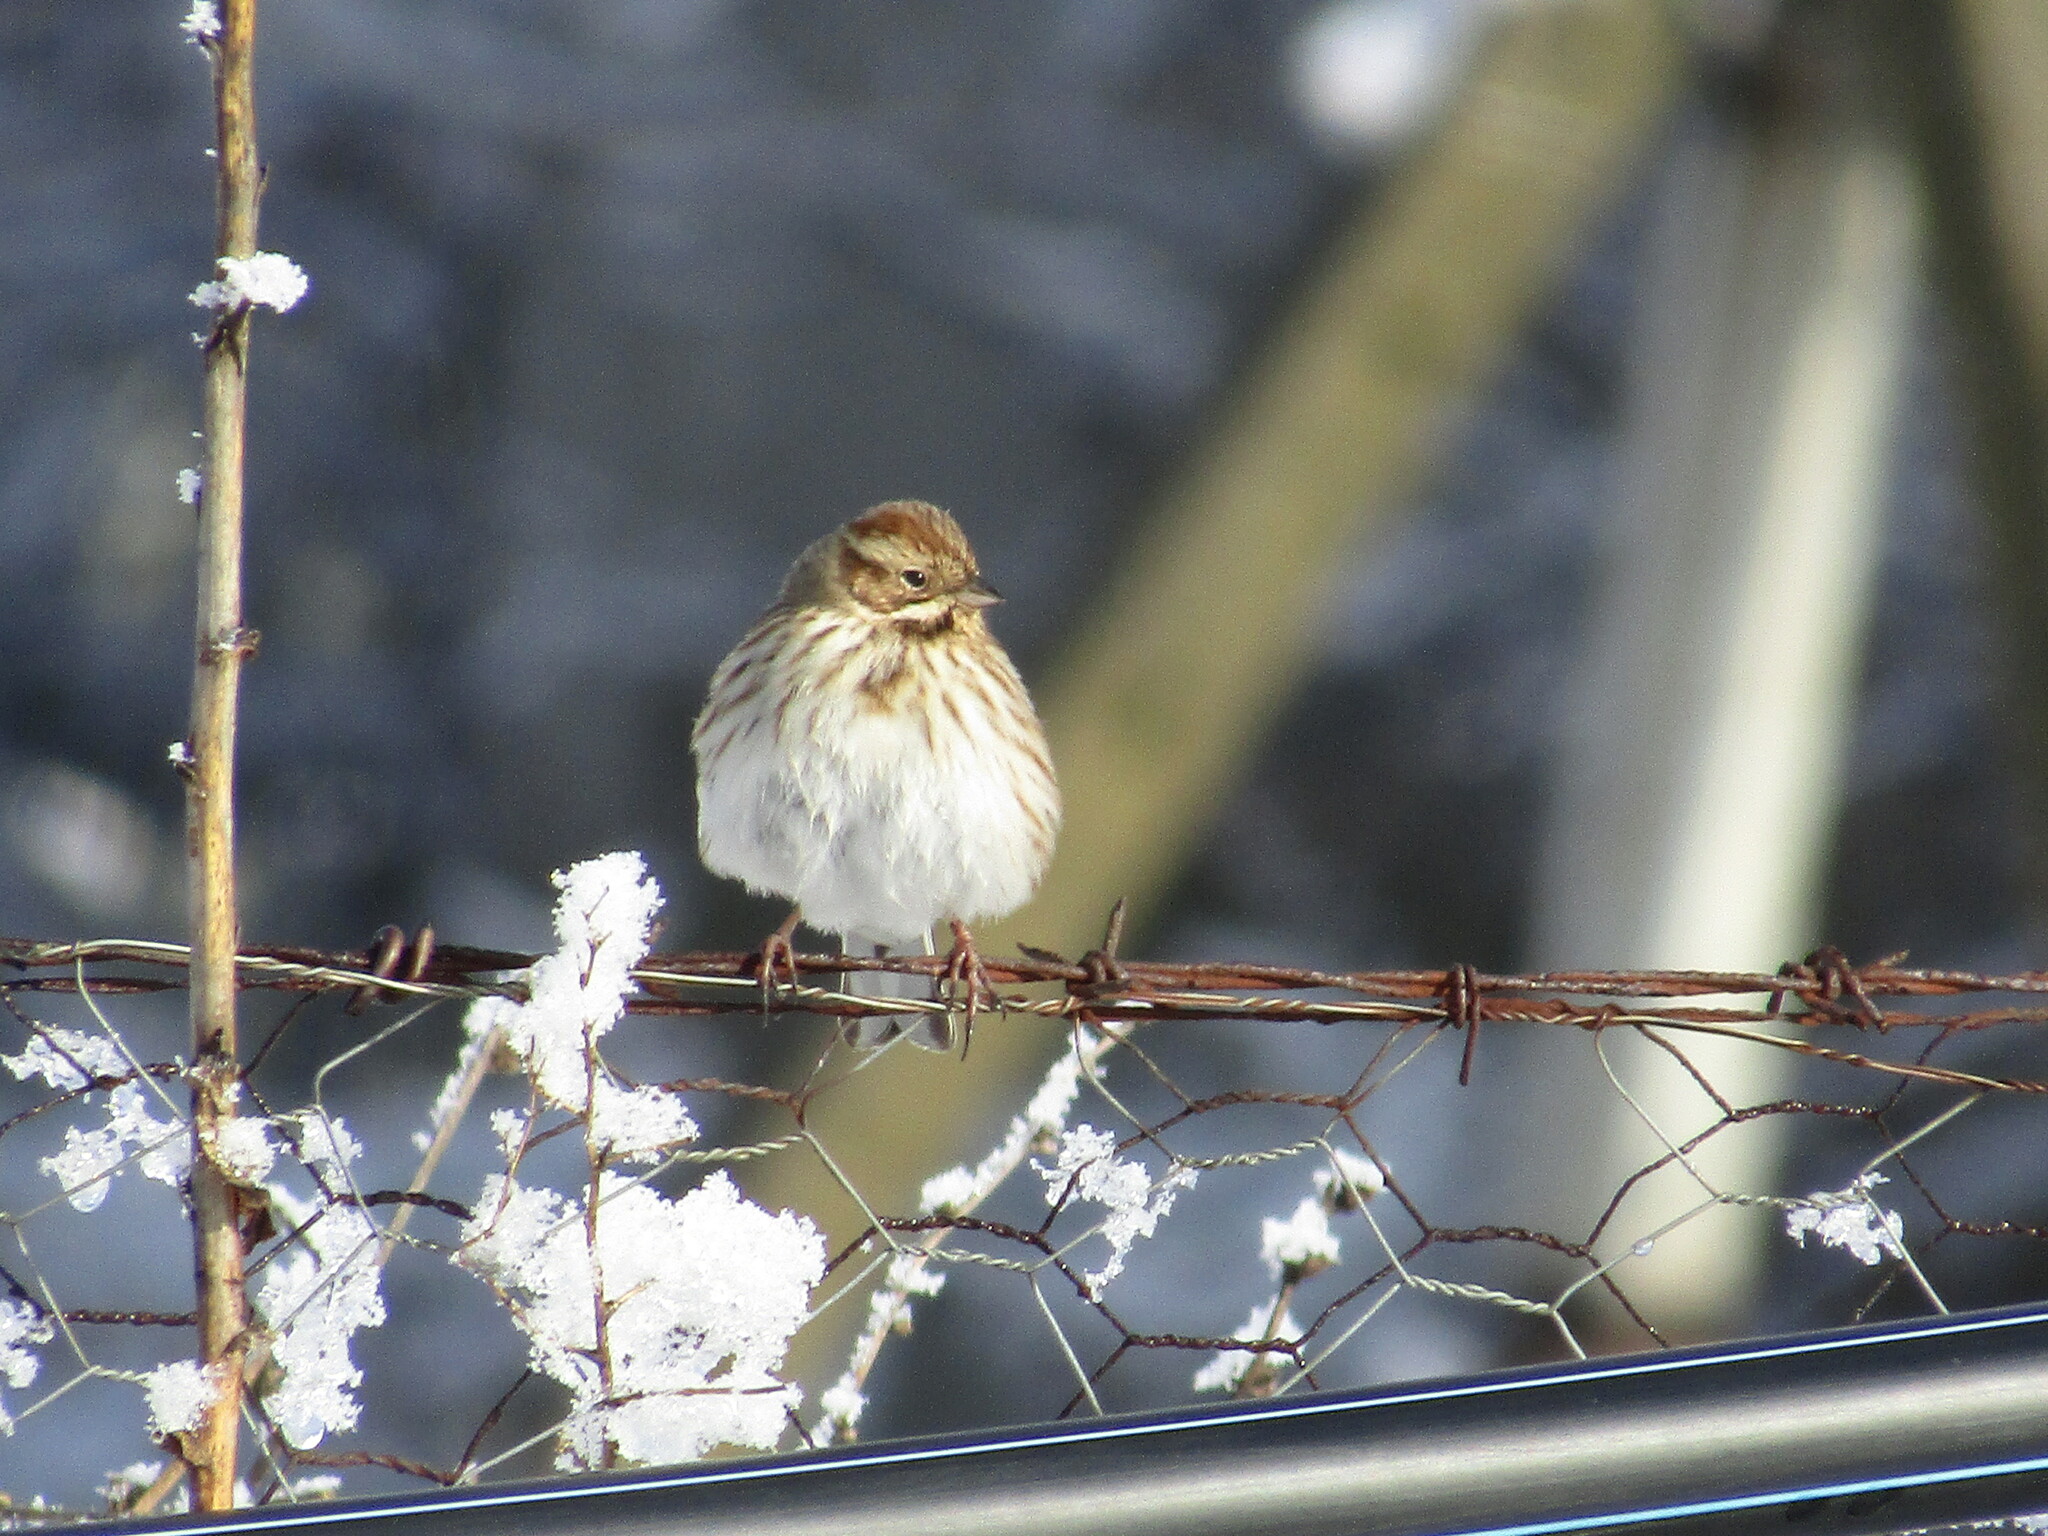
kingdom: Animalia
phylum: Chordata
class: Aves
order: Passeriformes
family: Emberizidae
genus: Emberiza
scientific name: Emberiza schoeniclus
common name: Reed bunting
